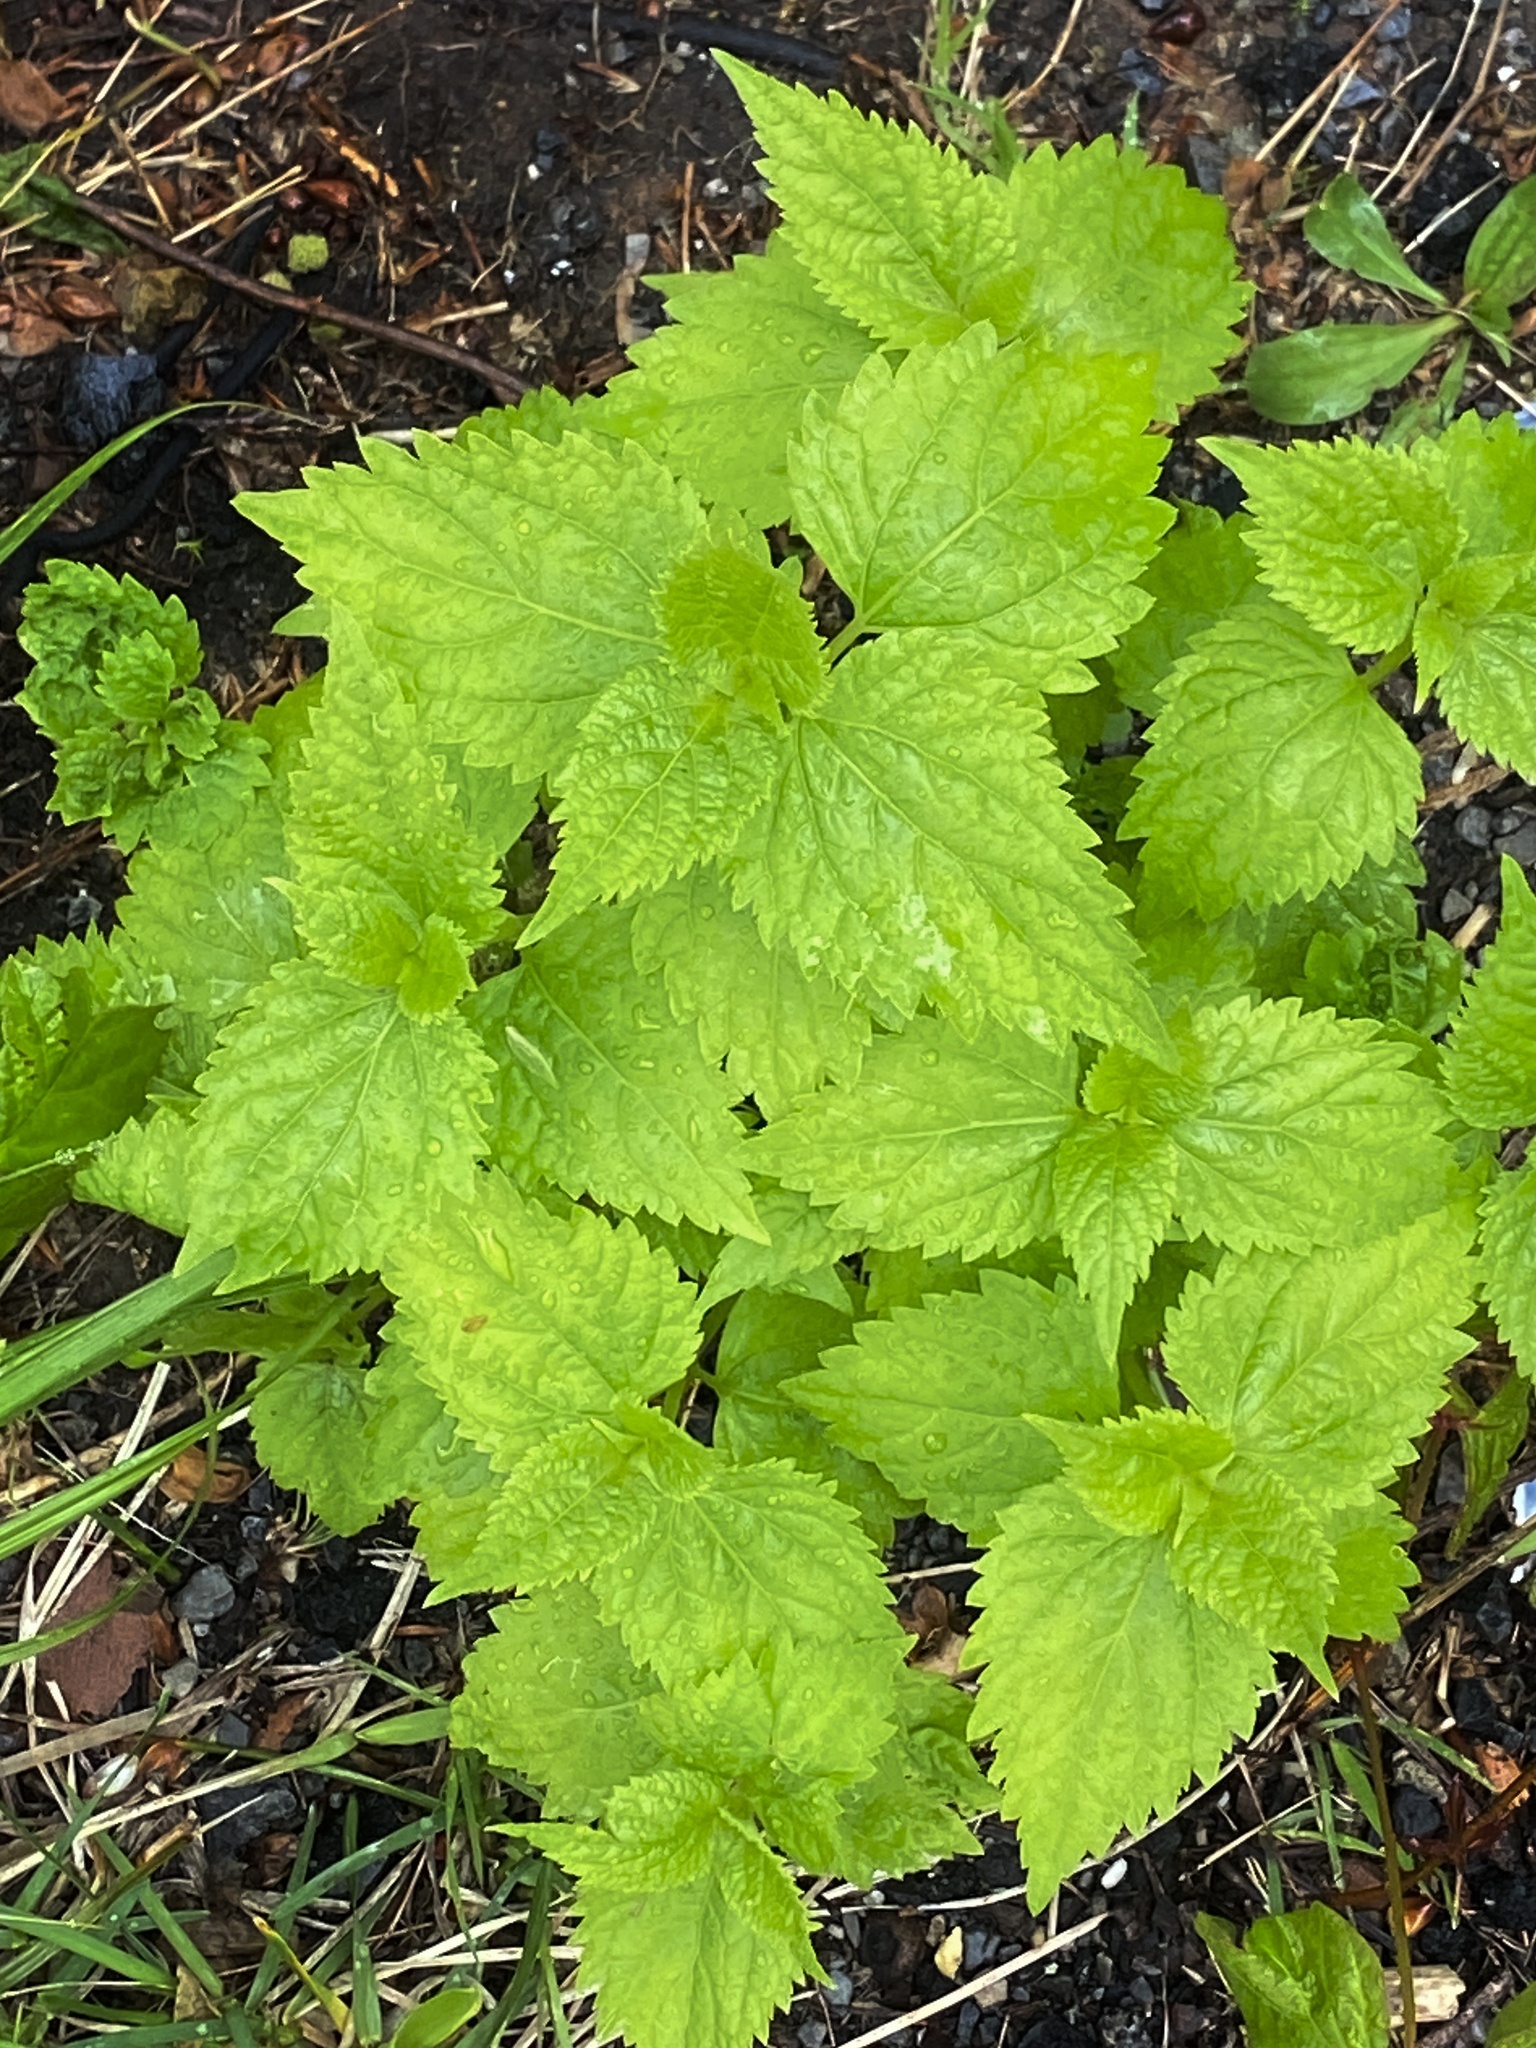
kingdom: Plantae
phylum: Tracheophyta
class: Magnoliopsida
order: Asterales
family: Asteraceae
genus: Ageratina
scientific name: Ageratina altissima
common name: White snakeroot
